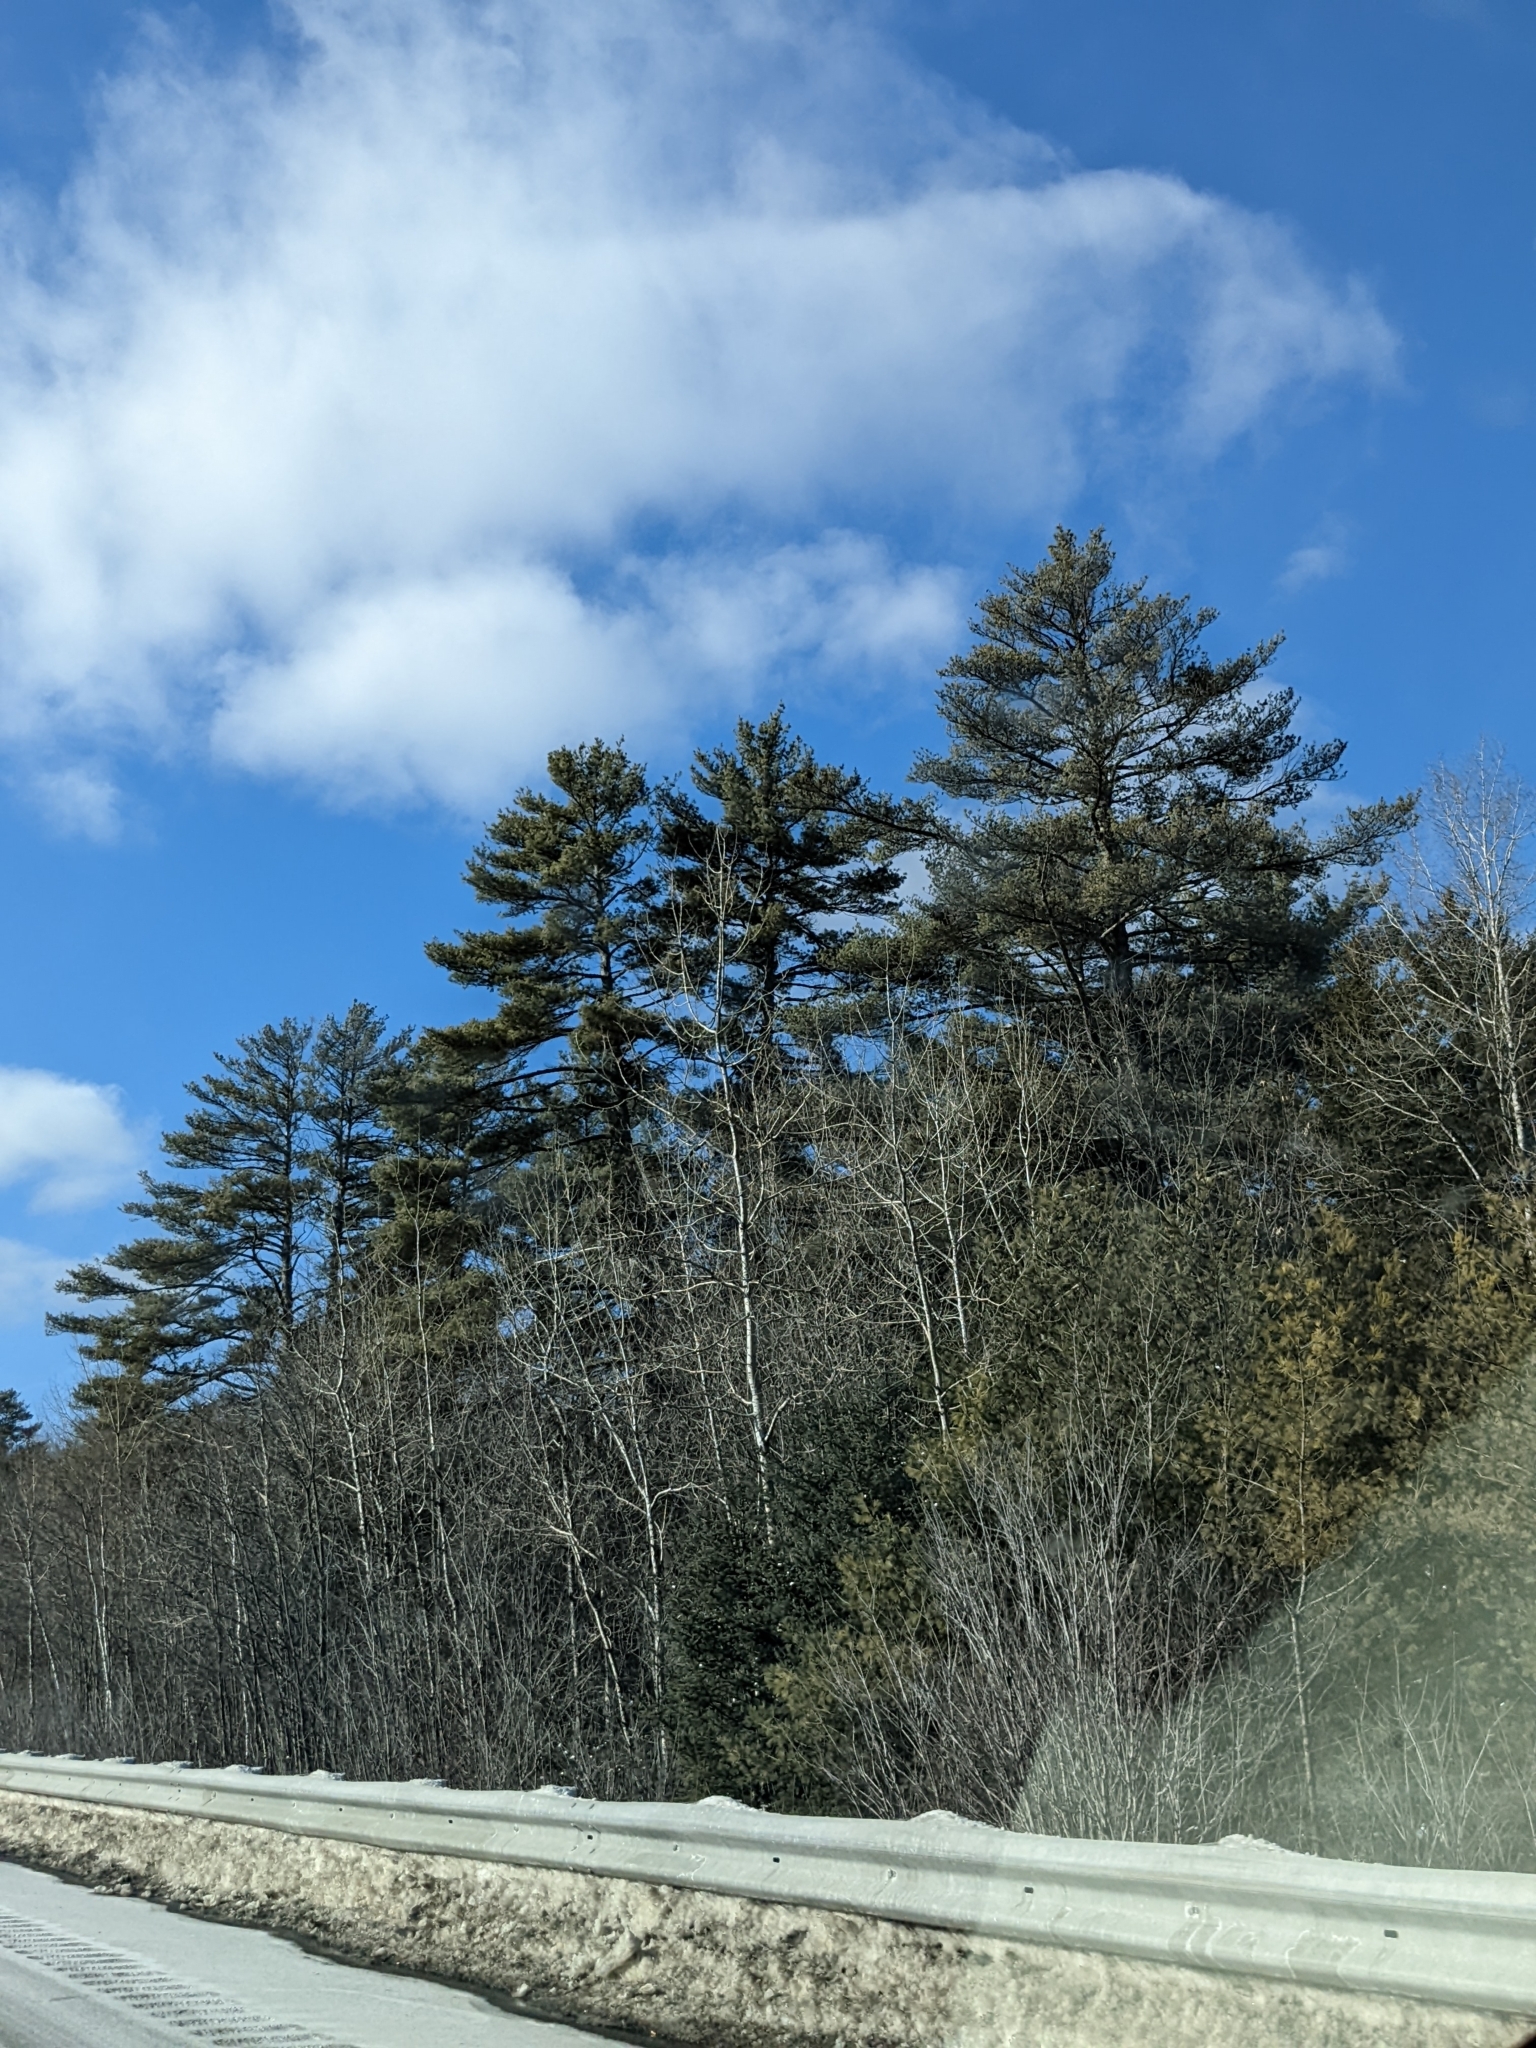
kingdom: Plantae
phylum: Tracheophyta
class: Pinopsida
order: Pinales
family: Pinaceae
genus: Pinus
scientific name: Pinus strobus
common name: Weymouth pine
